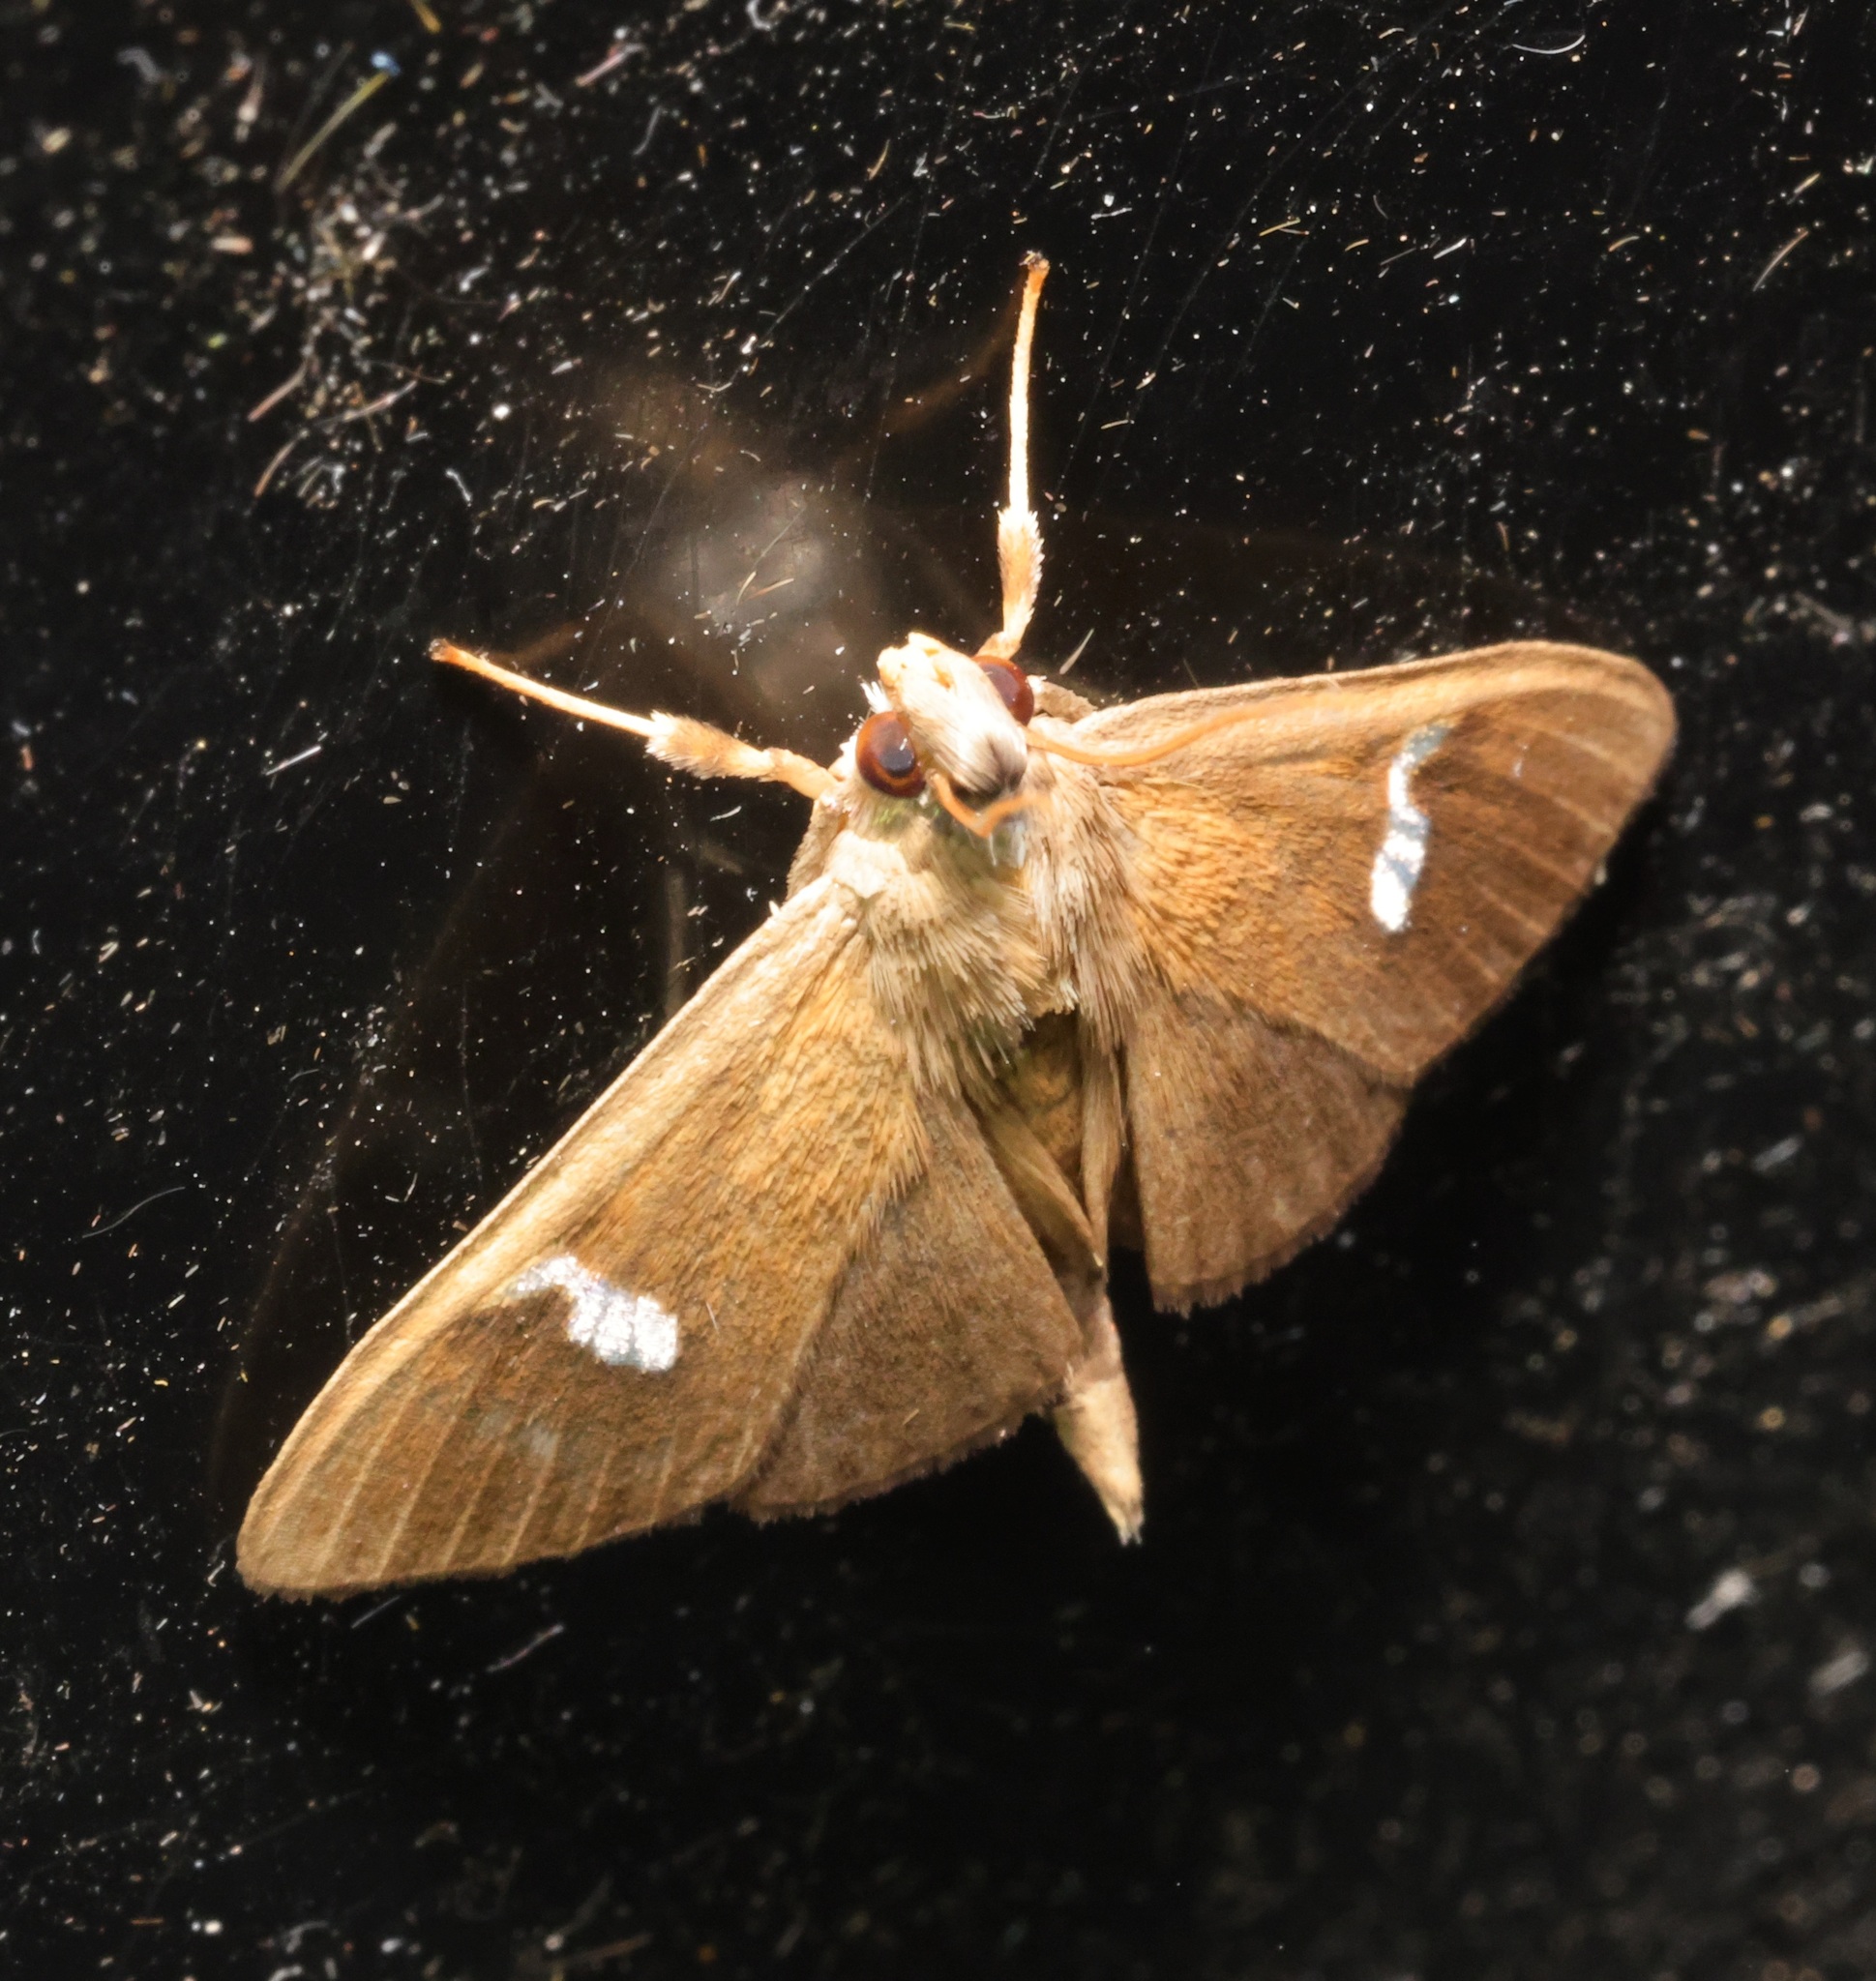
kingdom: Animalia
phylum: Arthropoda
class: Insecta
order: Lepidoptera
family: Crambidae
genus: Nosophora
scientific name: Nosophora dispilalis
